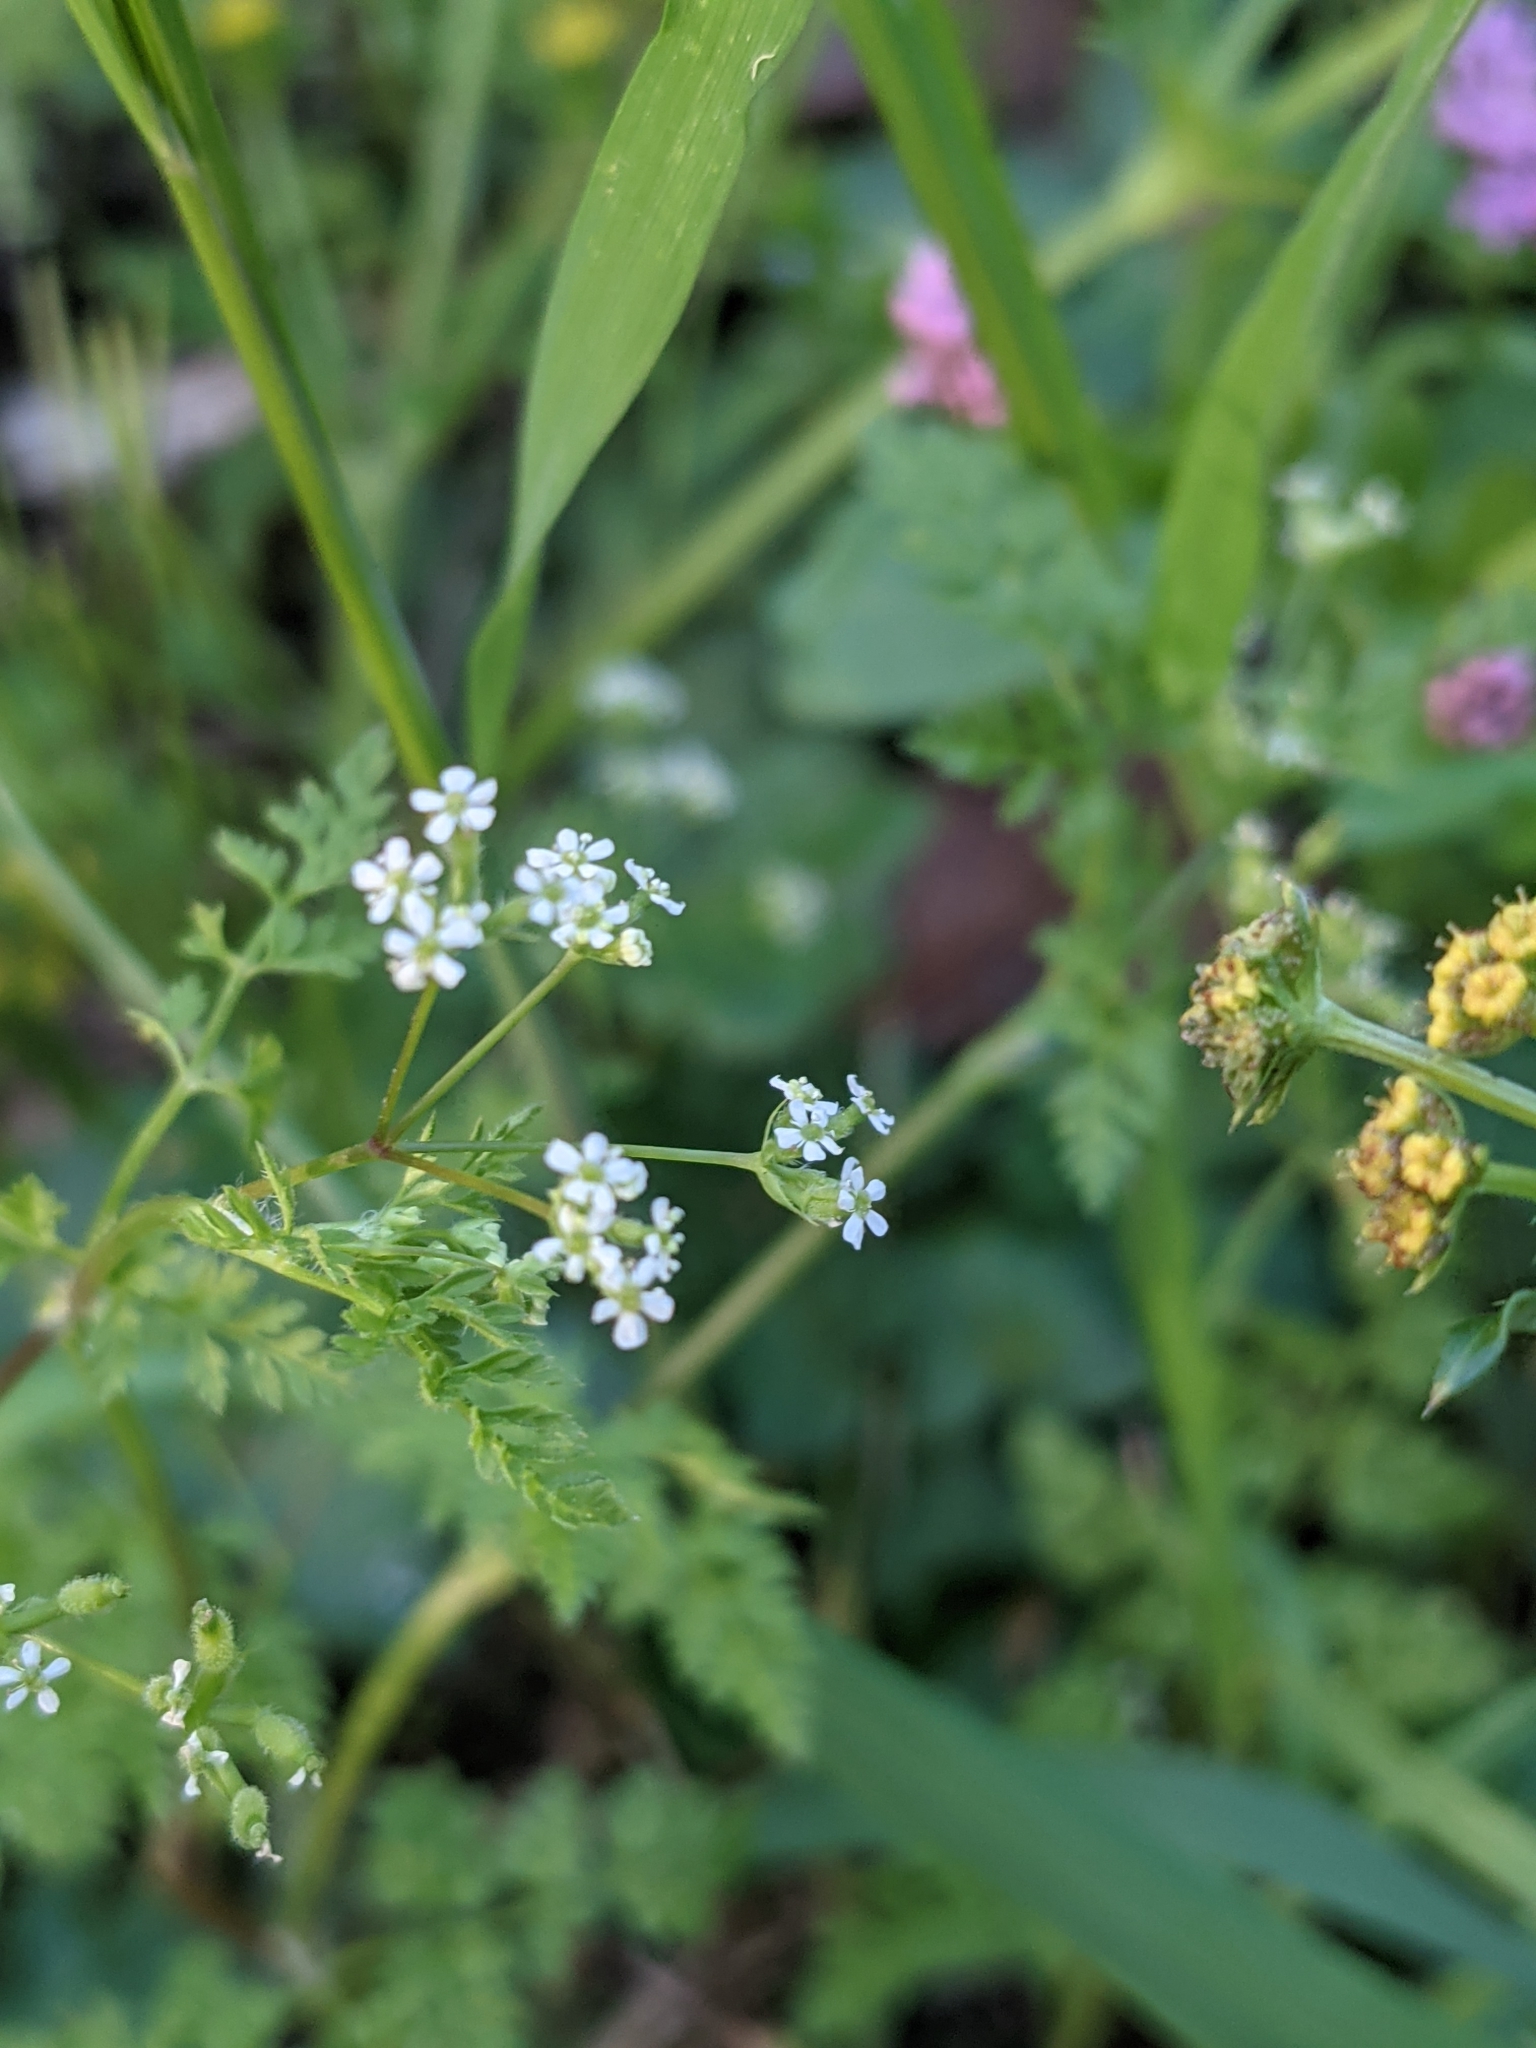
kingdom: Plantae
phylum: Tracheophyta
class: Magnoliopsida
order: Apiales
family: Apiaceae
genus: Anthriscus
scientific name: Anthriscus caucalis
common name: Bur chervil
